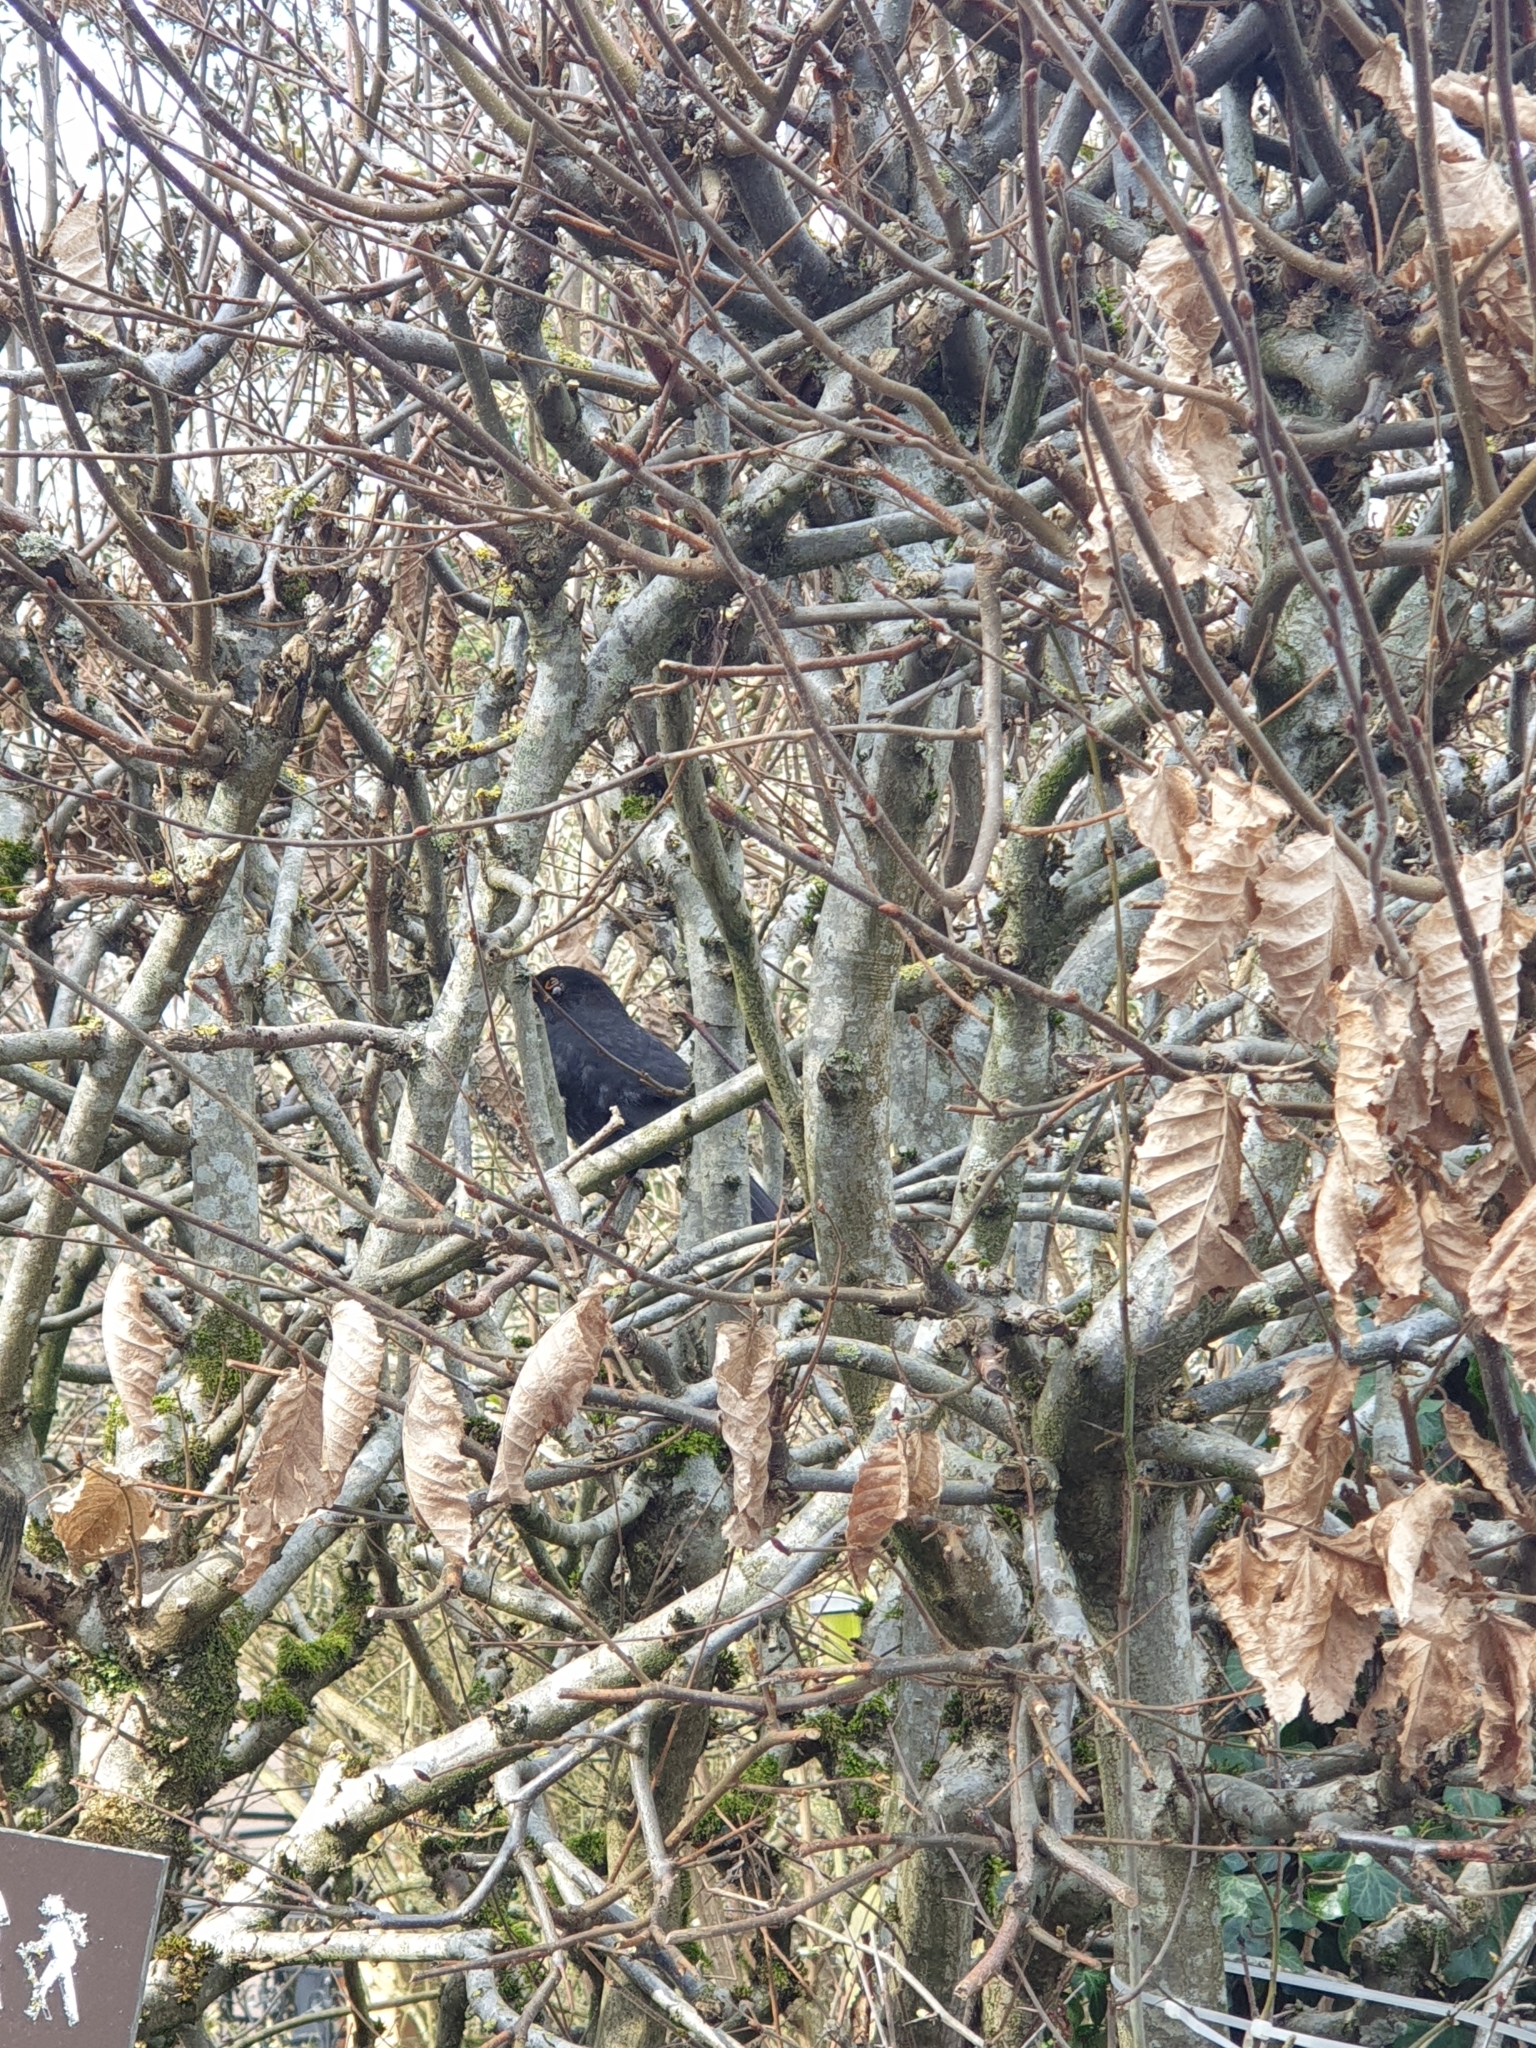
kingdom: Animalia
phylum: Chordata
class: Aves
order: Passeriformes
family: Turdidae
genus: Turdus
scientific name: Turdus merula
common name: Common blackbird
